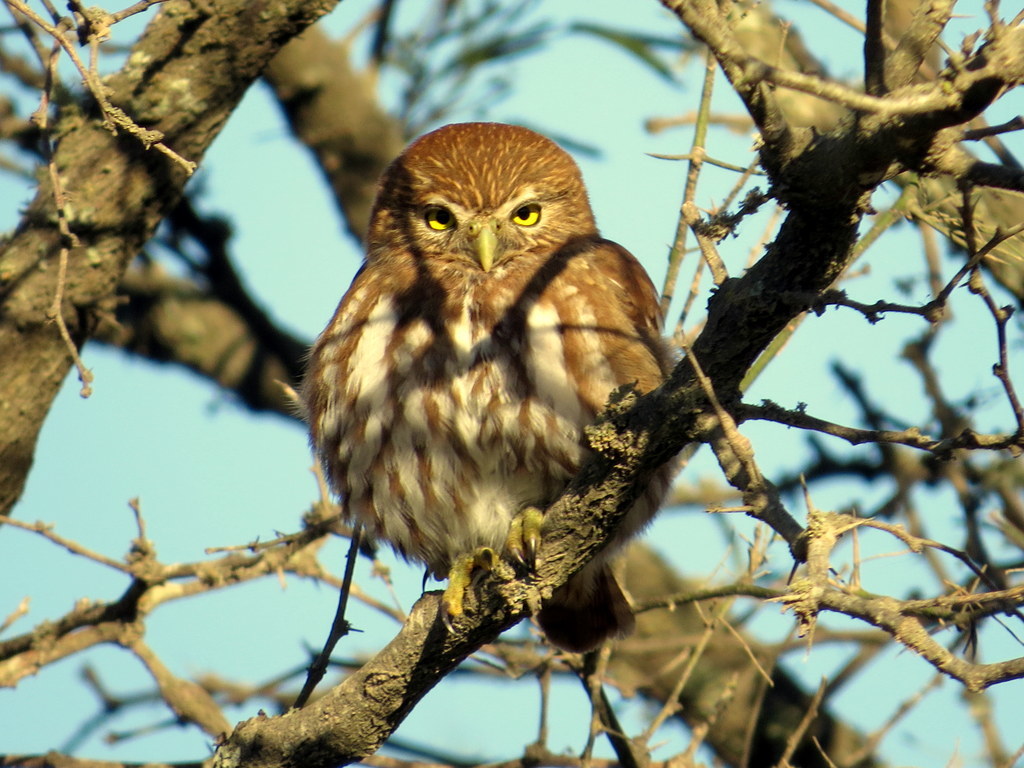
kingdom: Animalia
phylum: Chordata
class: Aves
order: Strigiformes
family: Strigidae
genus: Glaucidium
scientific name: Glaucidium brasilianum
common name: Ferruginous pygmy-owl
